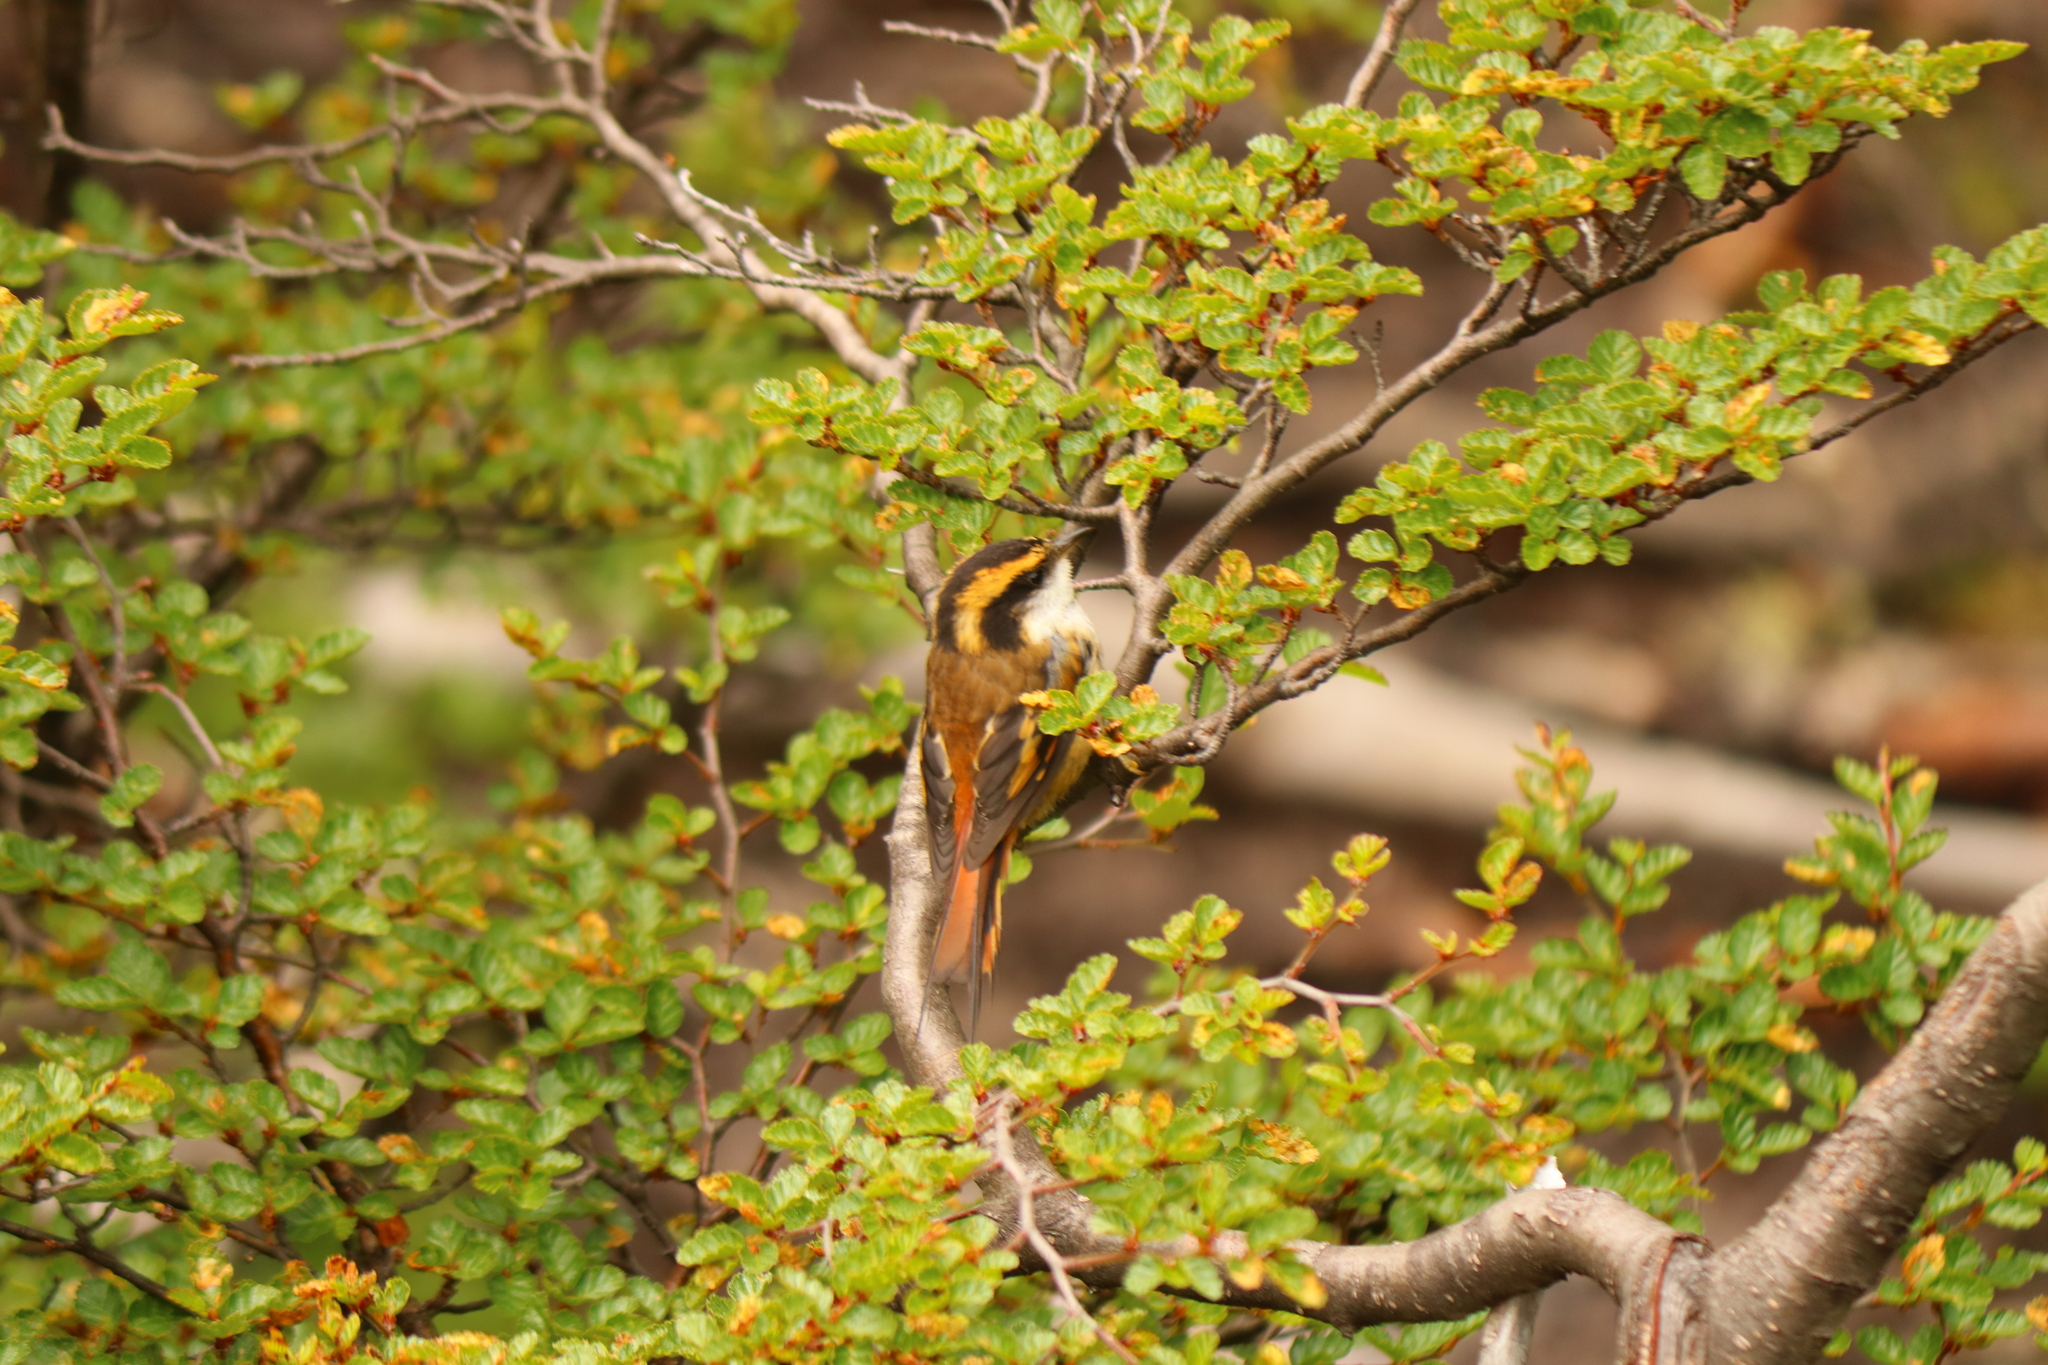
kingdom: Animalia
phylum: Chordata
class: Aves
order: Passeriformes
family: Furnariidae
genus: Aphrastura
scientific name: Aphrastura spinicauda
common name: Thorn-tailed rayadito
